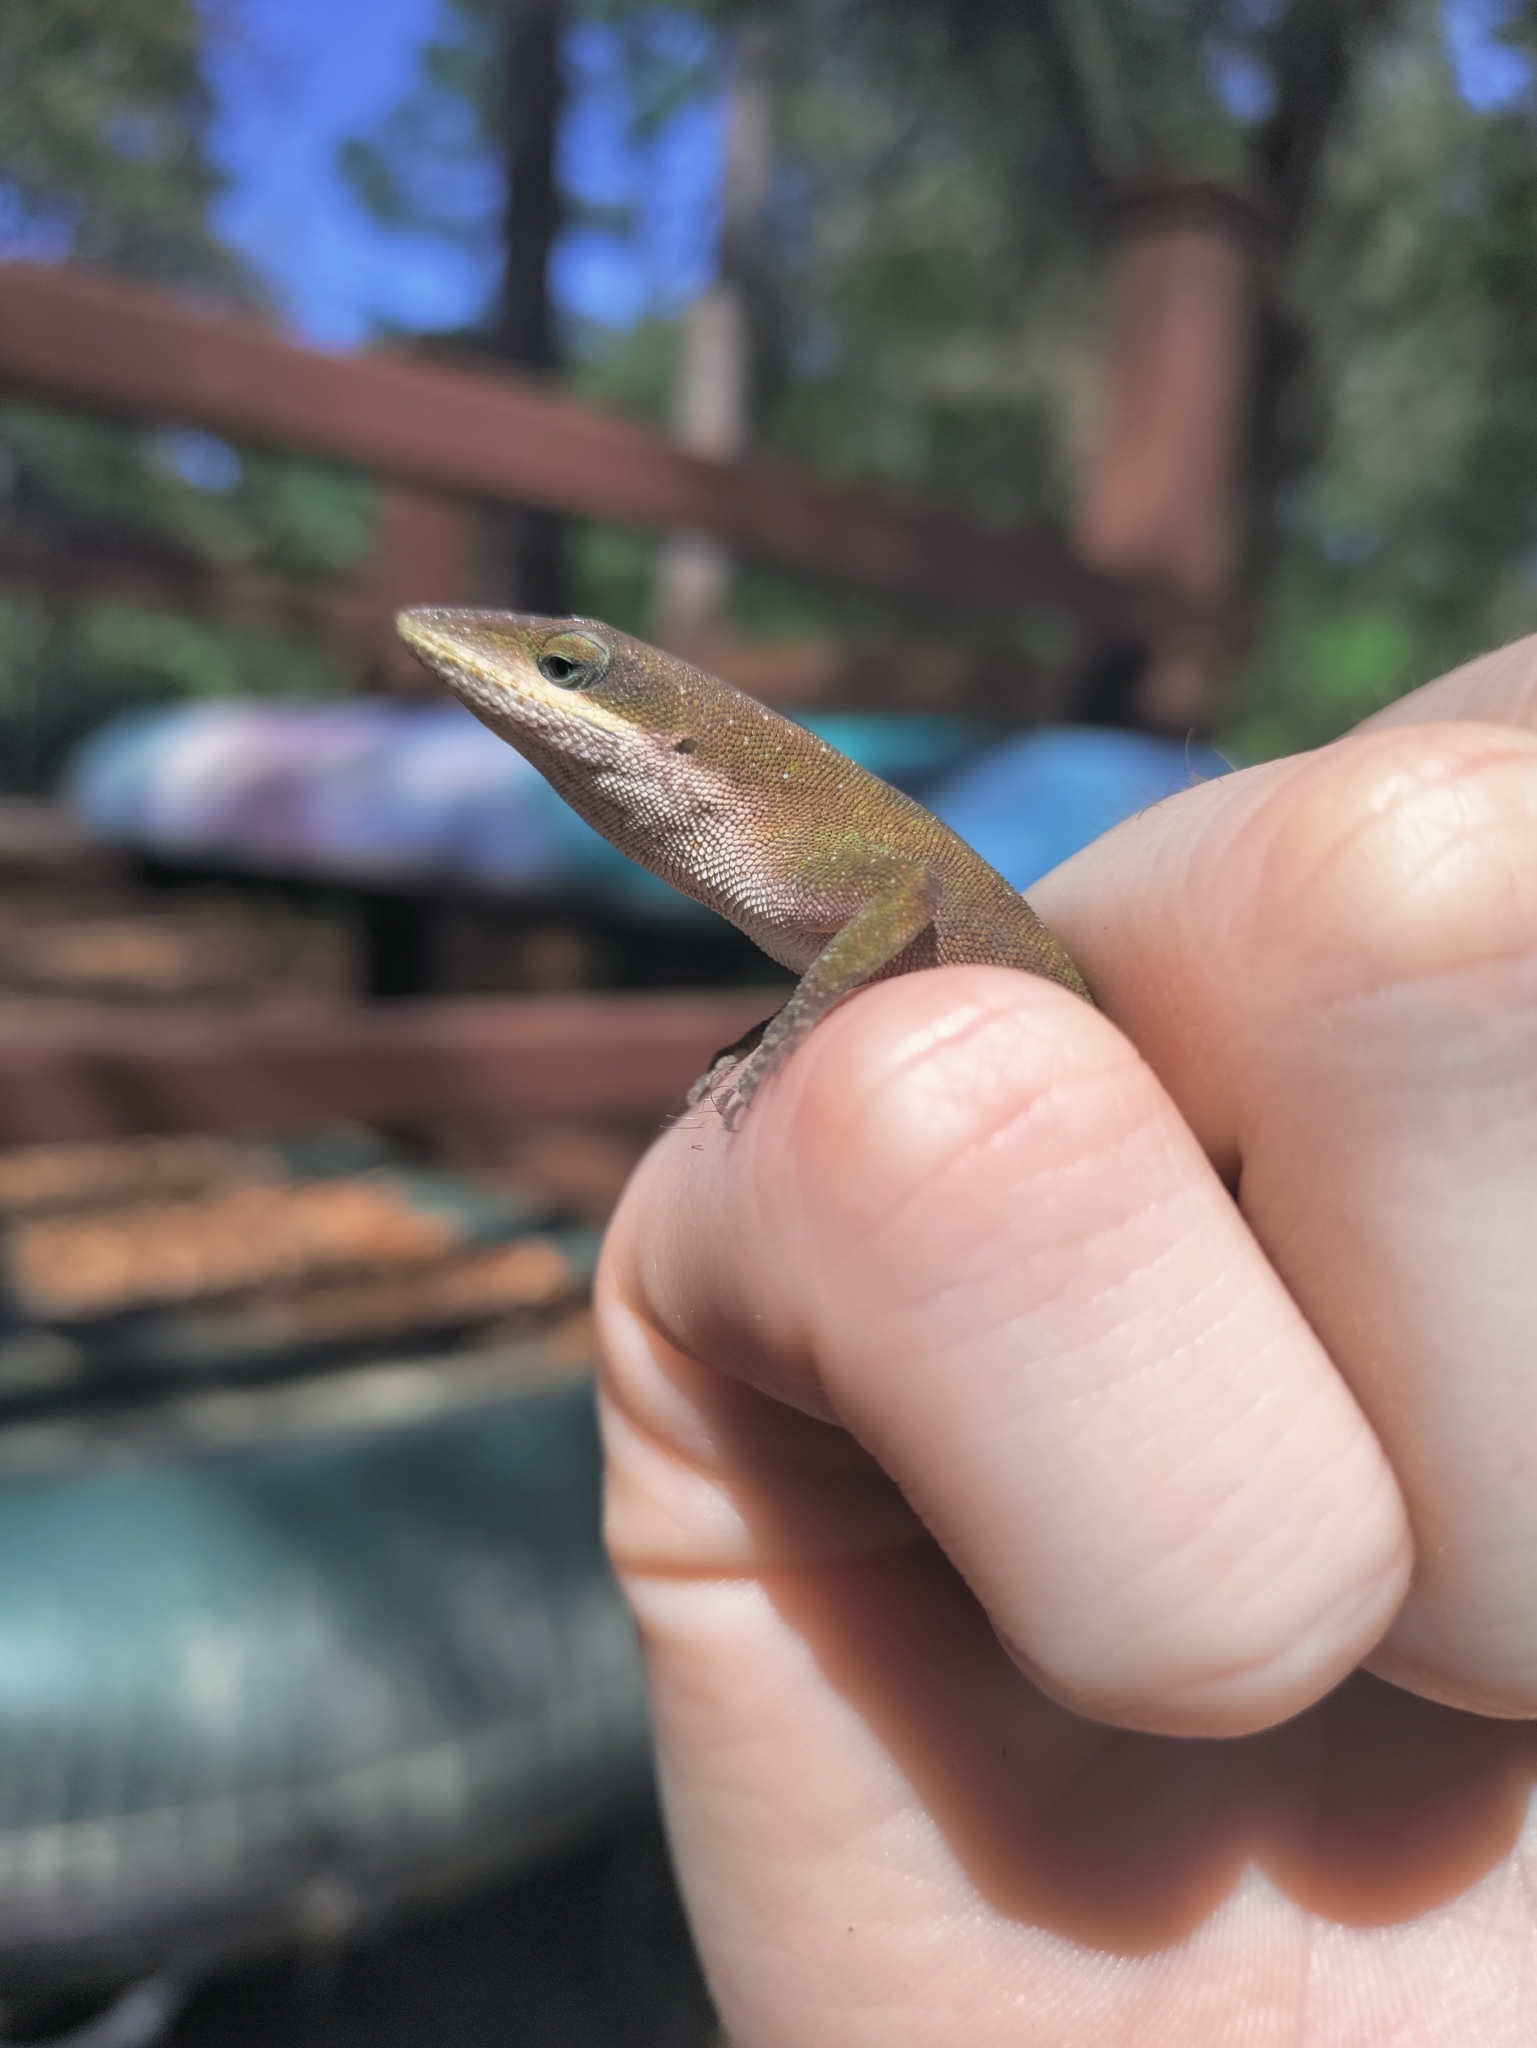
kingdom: Animalia
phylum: Chordata
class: Squamata
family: Dactyloidae
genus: Anolis
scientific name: Anolis carolinensis
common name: Green anole
